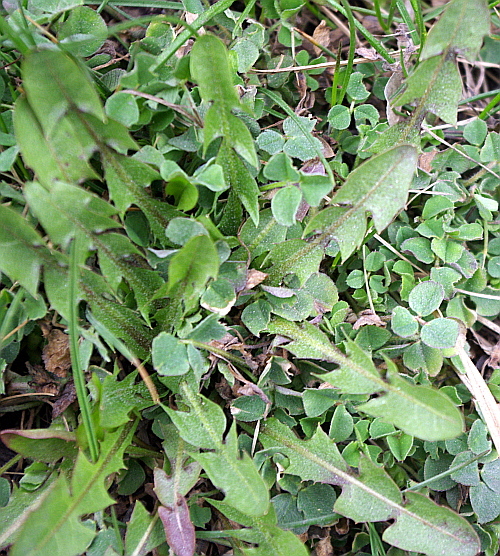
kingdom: Plantae
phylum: Tracheophyta
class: Magnoliopsida
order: Asterales
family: Asteraceae
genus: Taraxacum
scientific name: Taraxacum officinale
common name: Common dandelion
